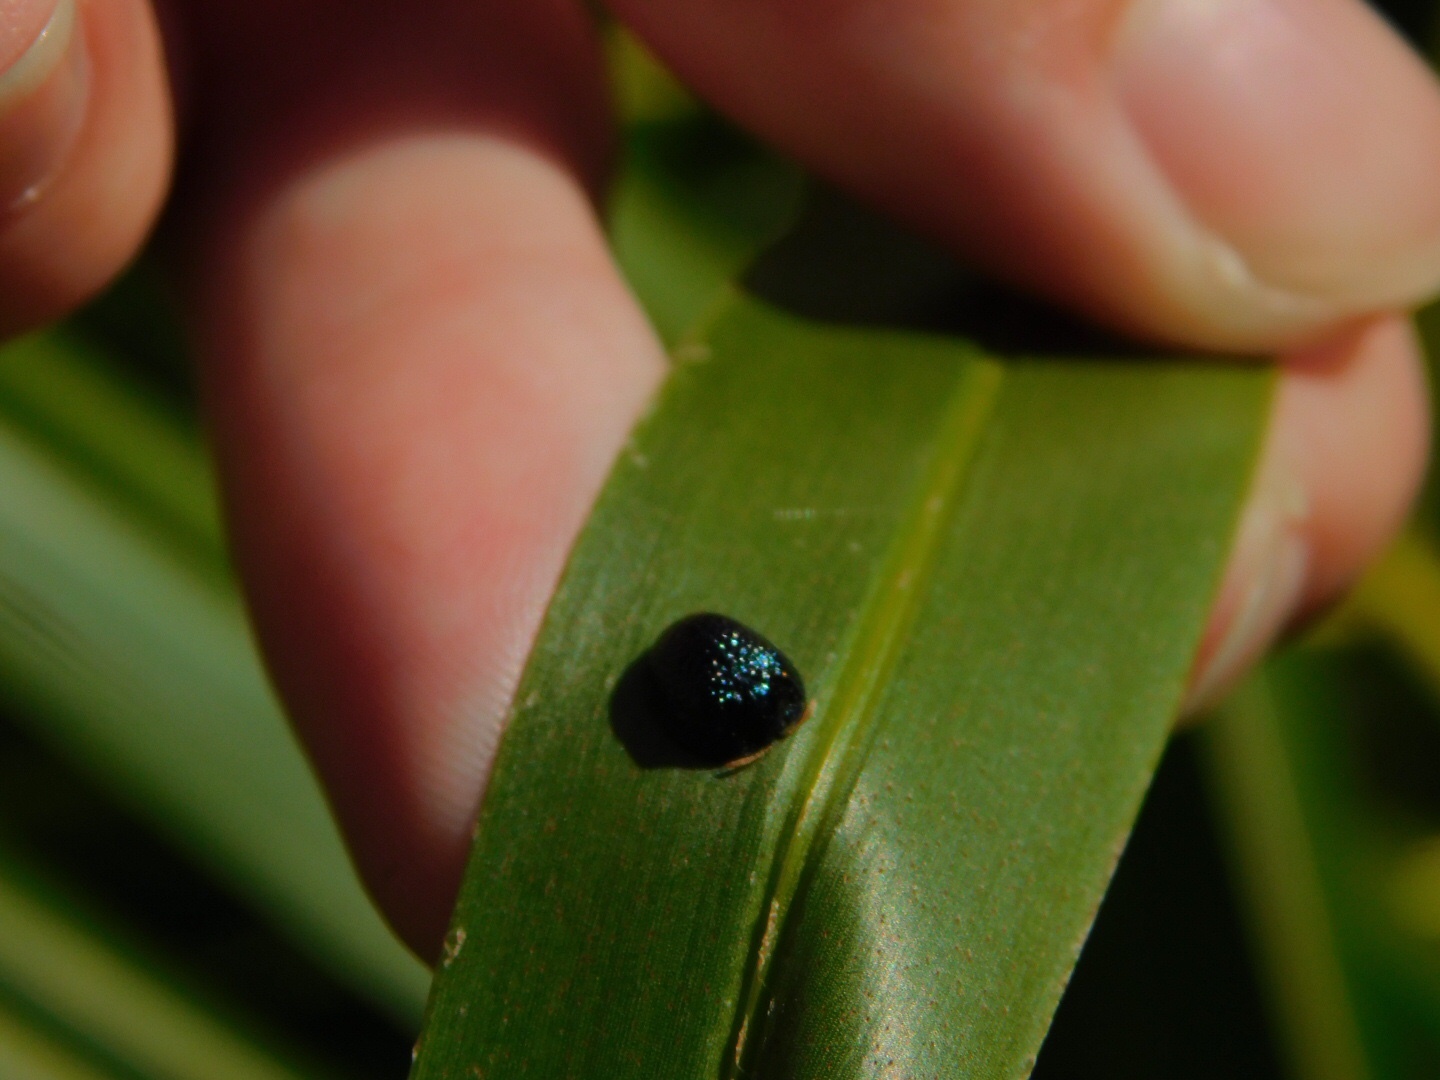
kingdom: Animalia
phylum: Arthropoda
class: Insecta
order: Coleoptera
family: Chrysomelidae
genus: Hemisphaerota
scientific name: Hemisphaerota cyanea
